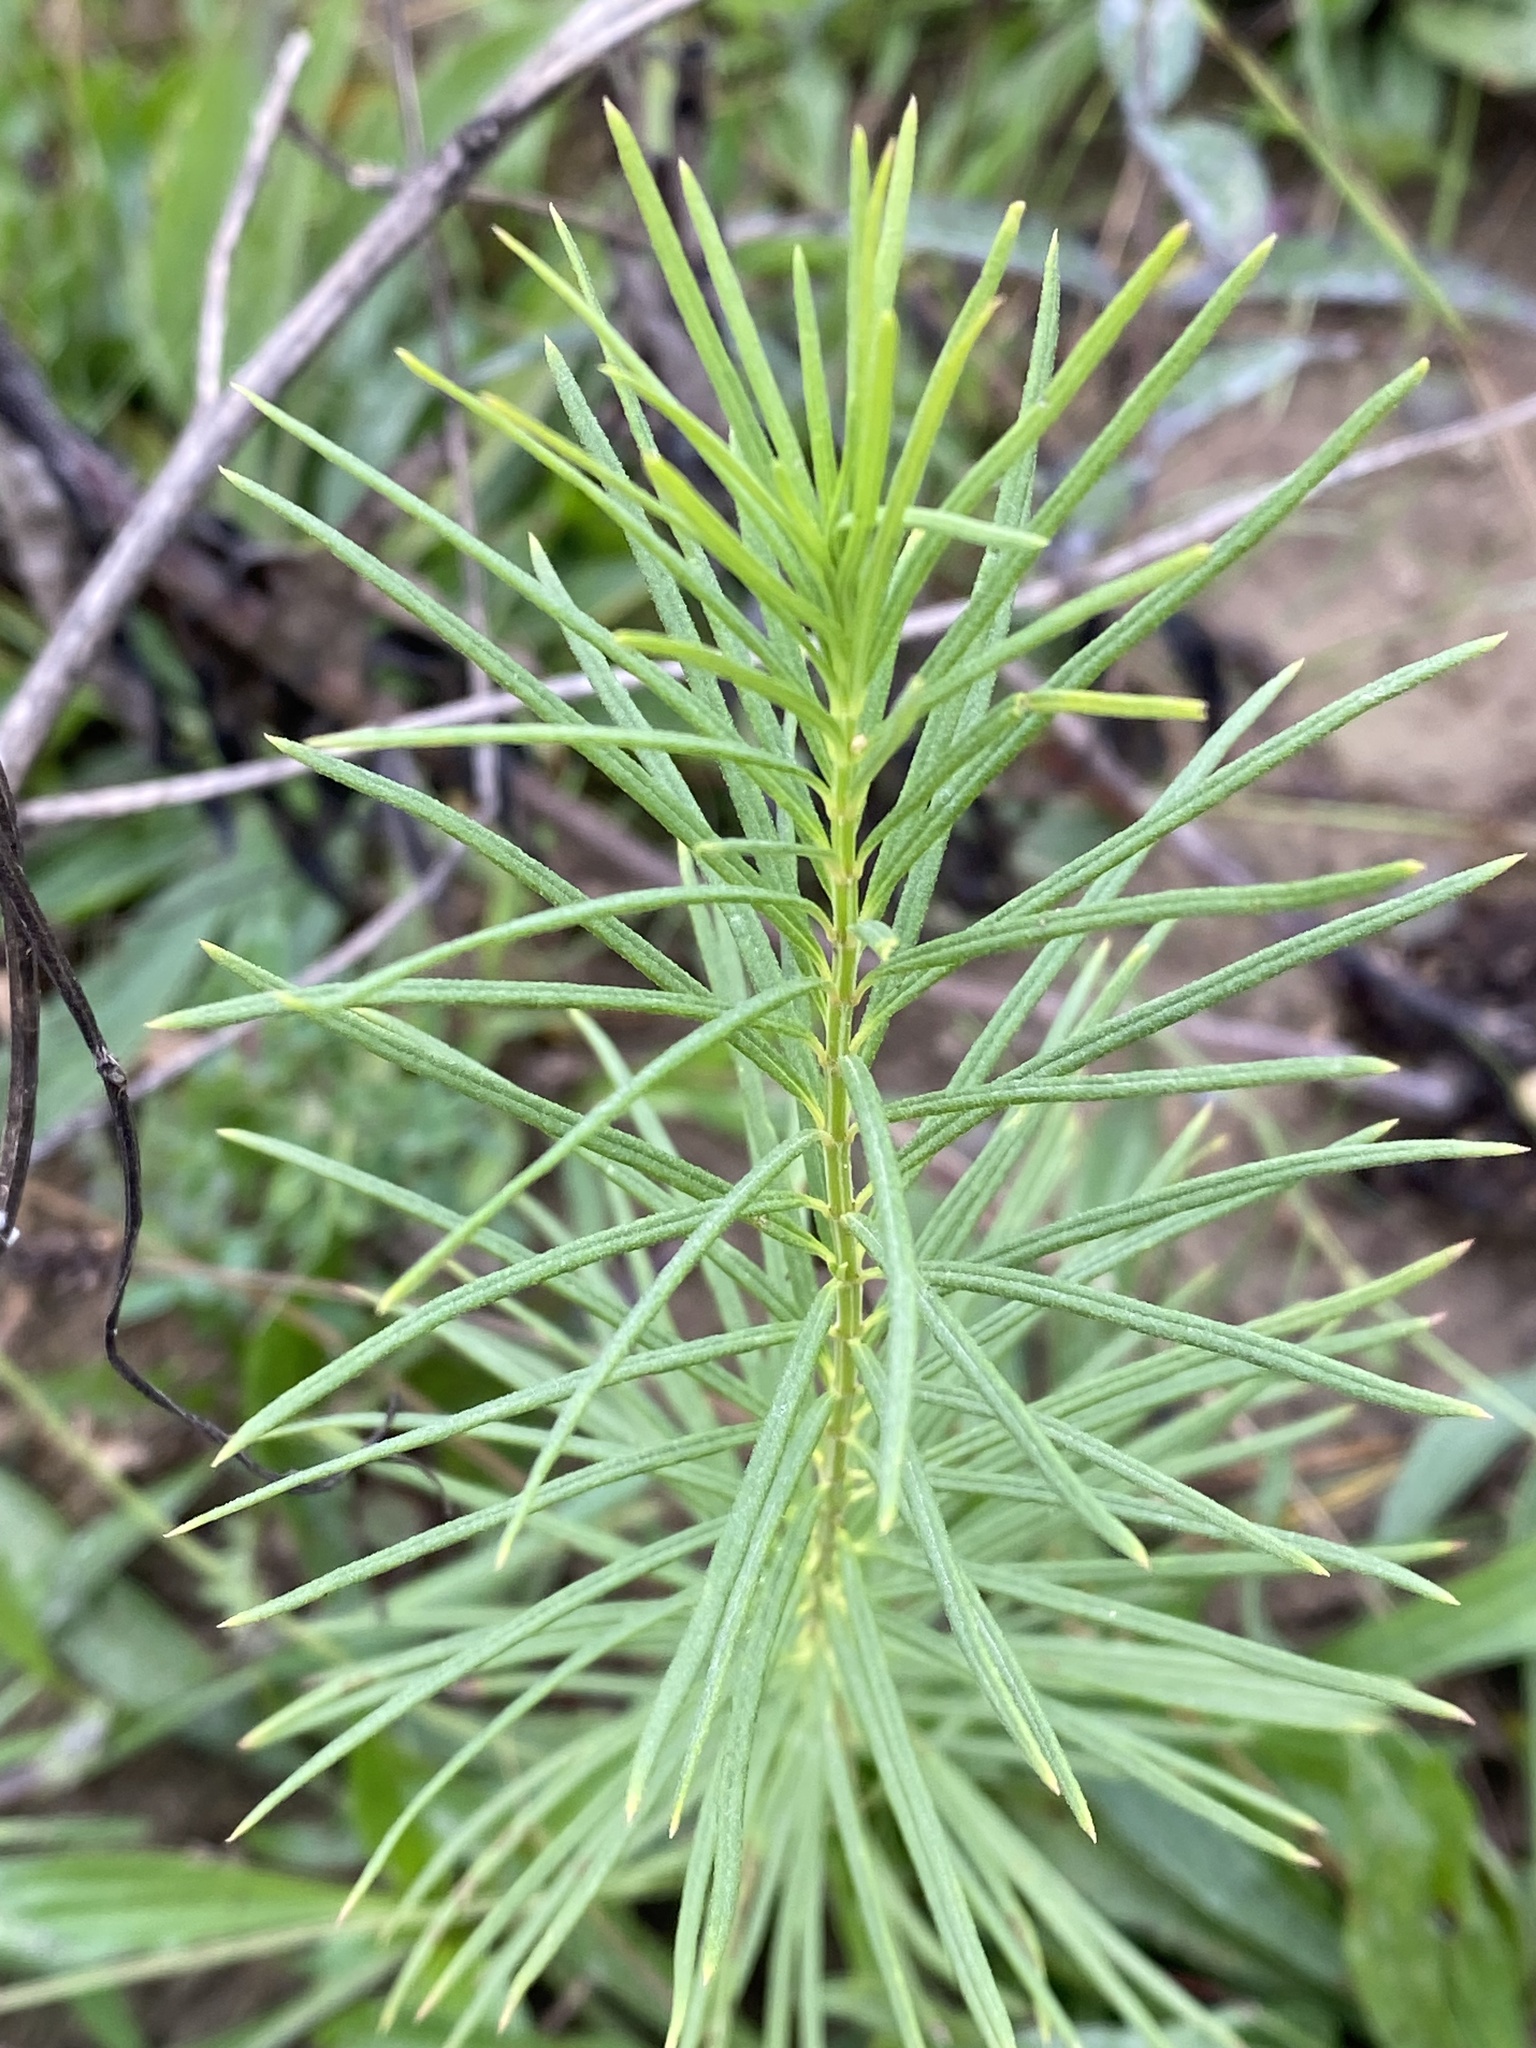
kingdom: Plantae
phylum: Tracheophyta
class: Magnoliopsida
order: Gentianales
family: Apocynaceae
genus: Asclepias
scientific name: Asclepias verticillata
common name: Eastern whorled milkweed
